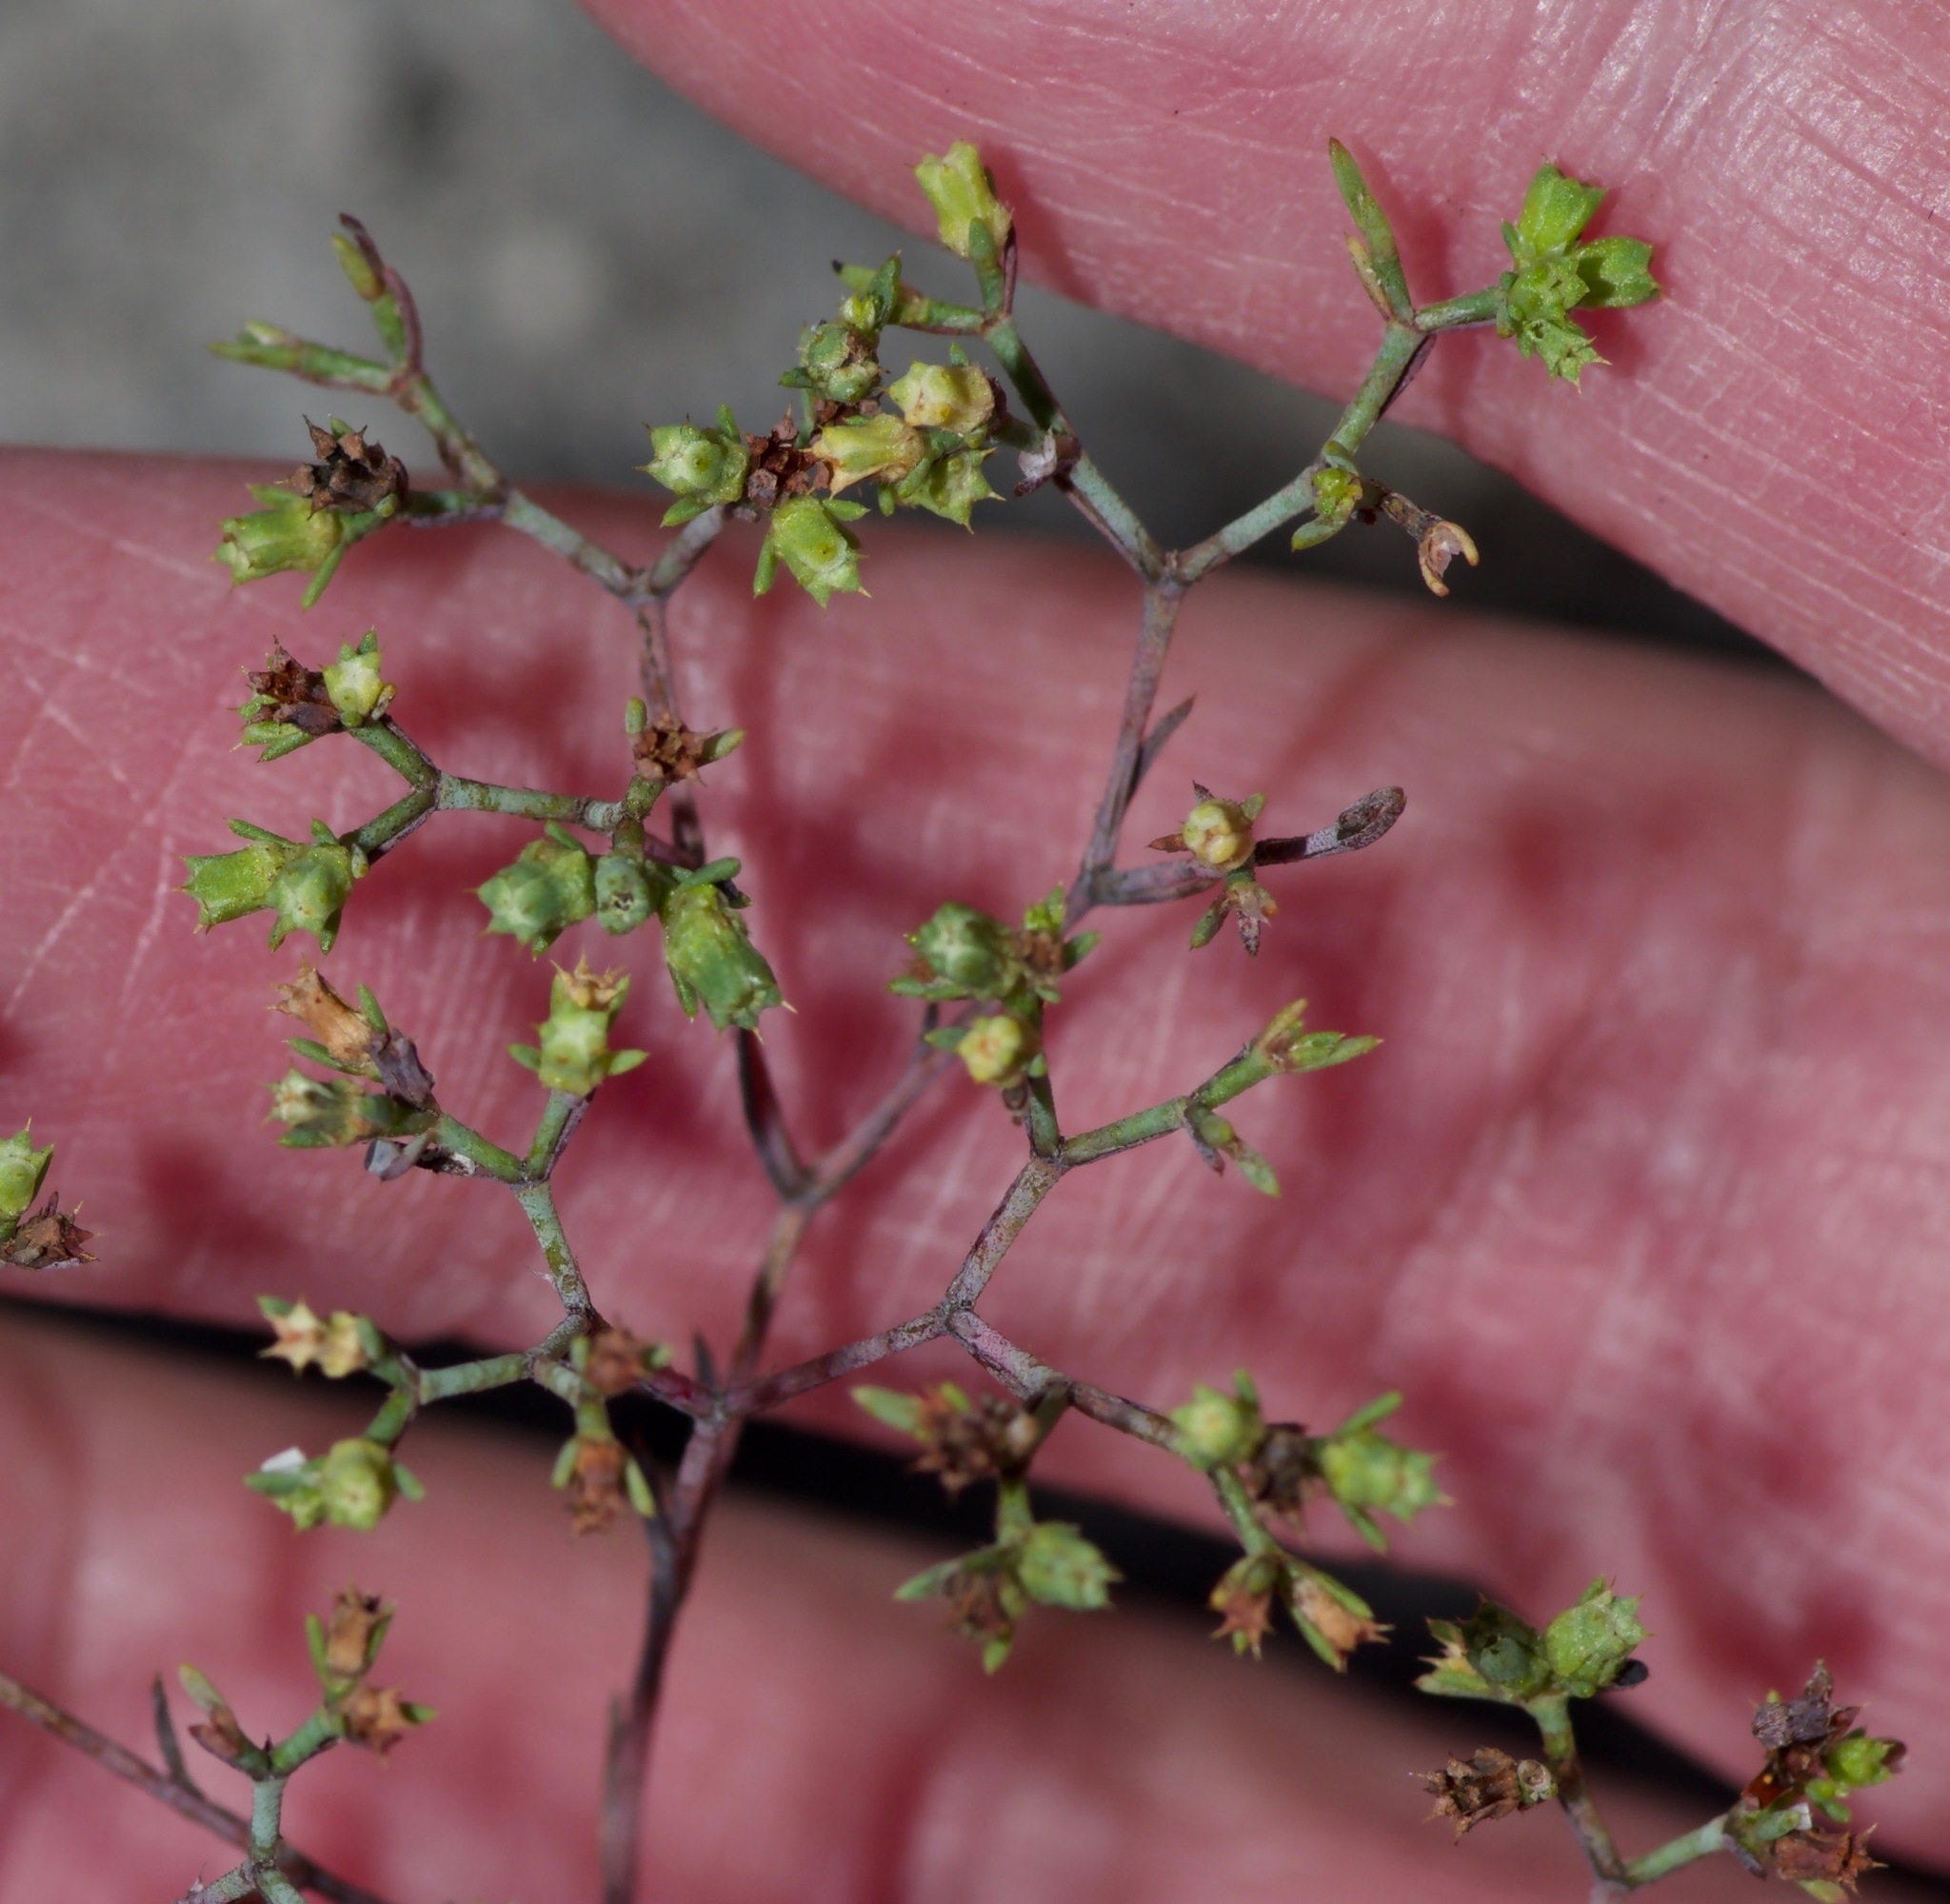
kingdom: Plantae
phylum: Tracheophyta
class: Magnoliopsida
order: Caryophyllales
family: Caryophyllaceae
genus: Paronychia
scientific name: Paronychia lindheimeri
